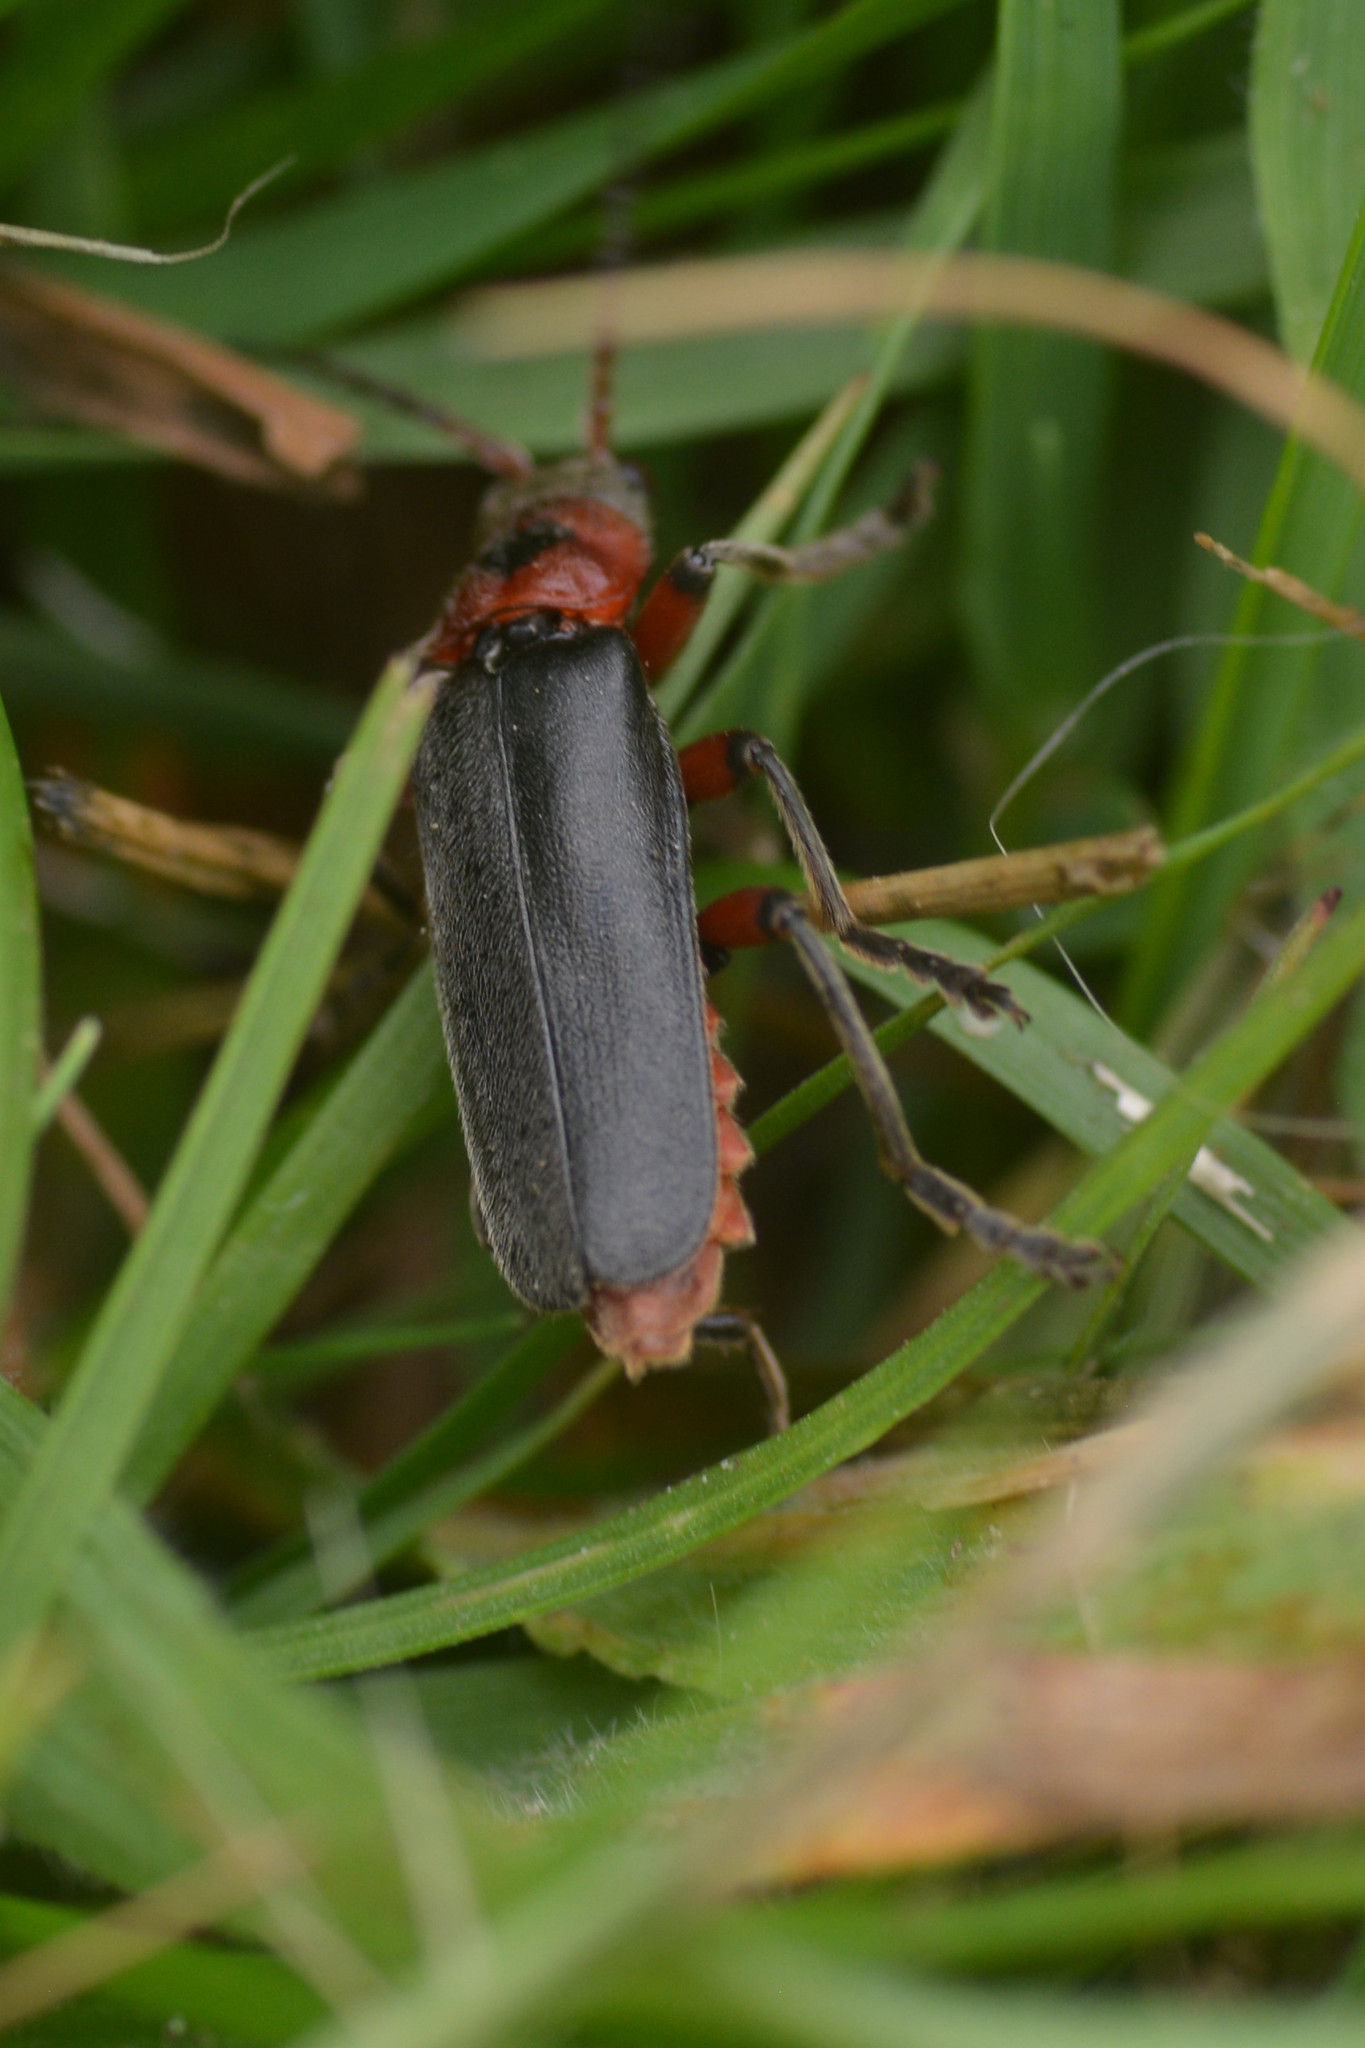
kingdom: Animalia
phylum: Arthropoda
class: Insecta
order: Coleoptera
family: Cantharidae
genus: Cantharis
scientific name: Cantharis rustica
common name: Soldier beetle
